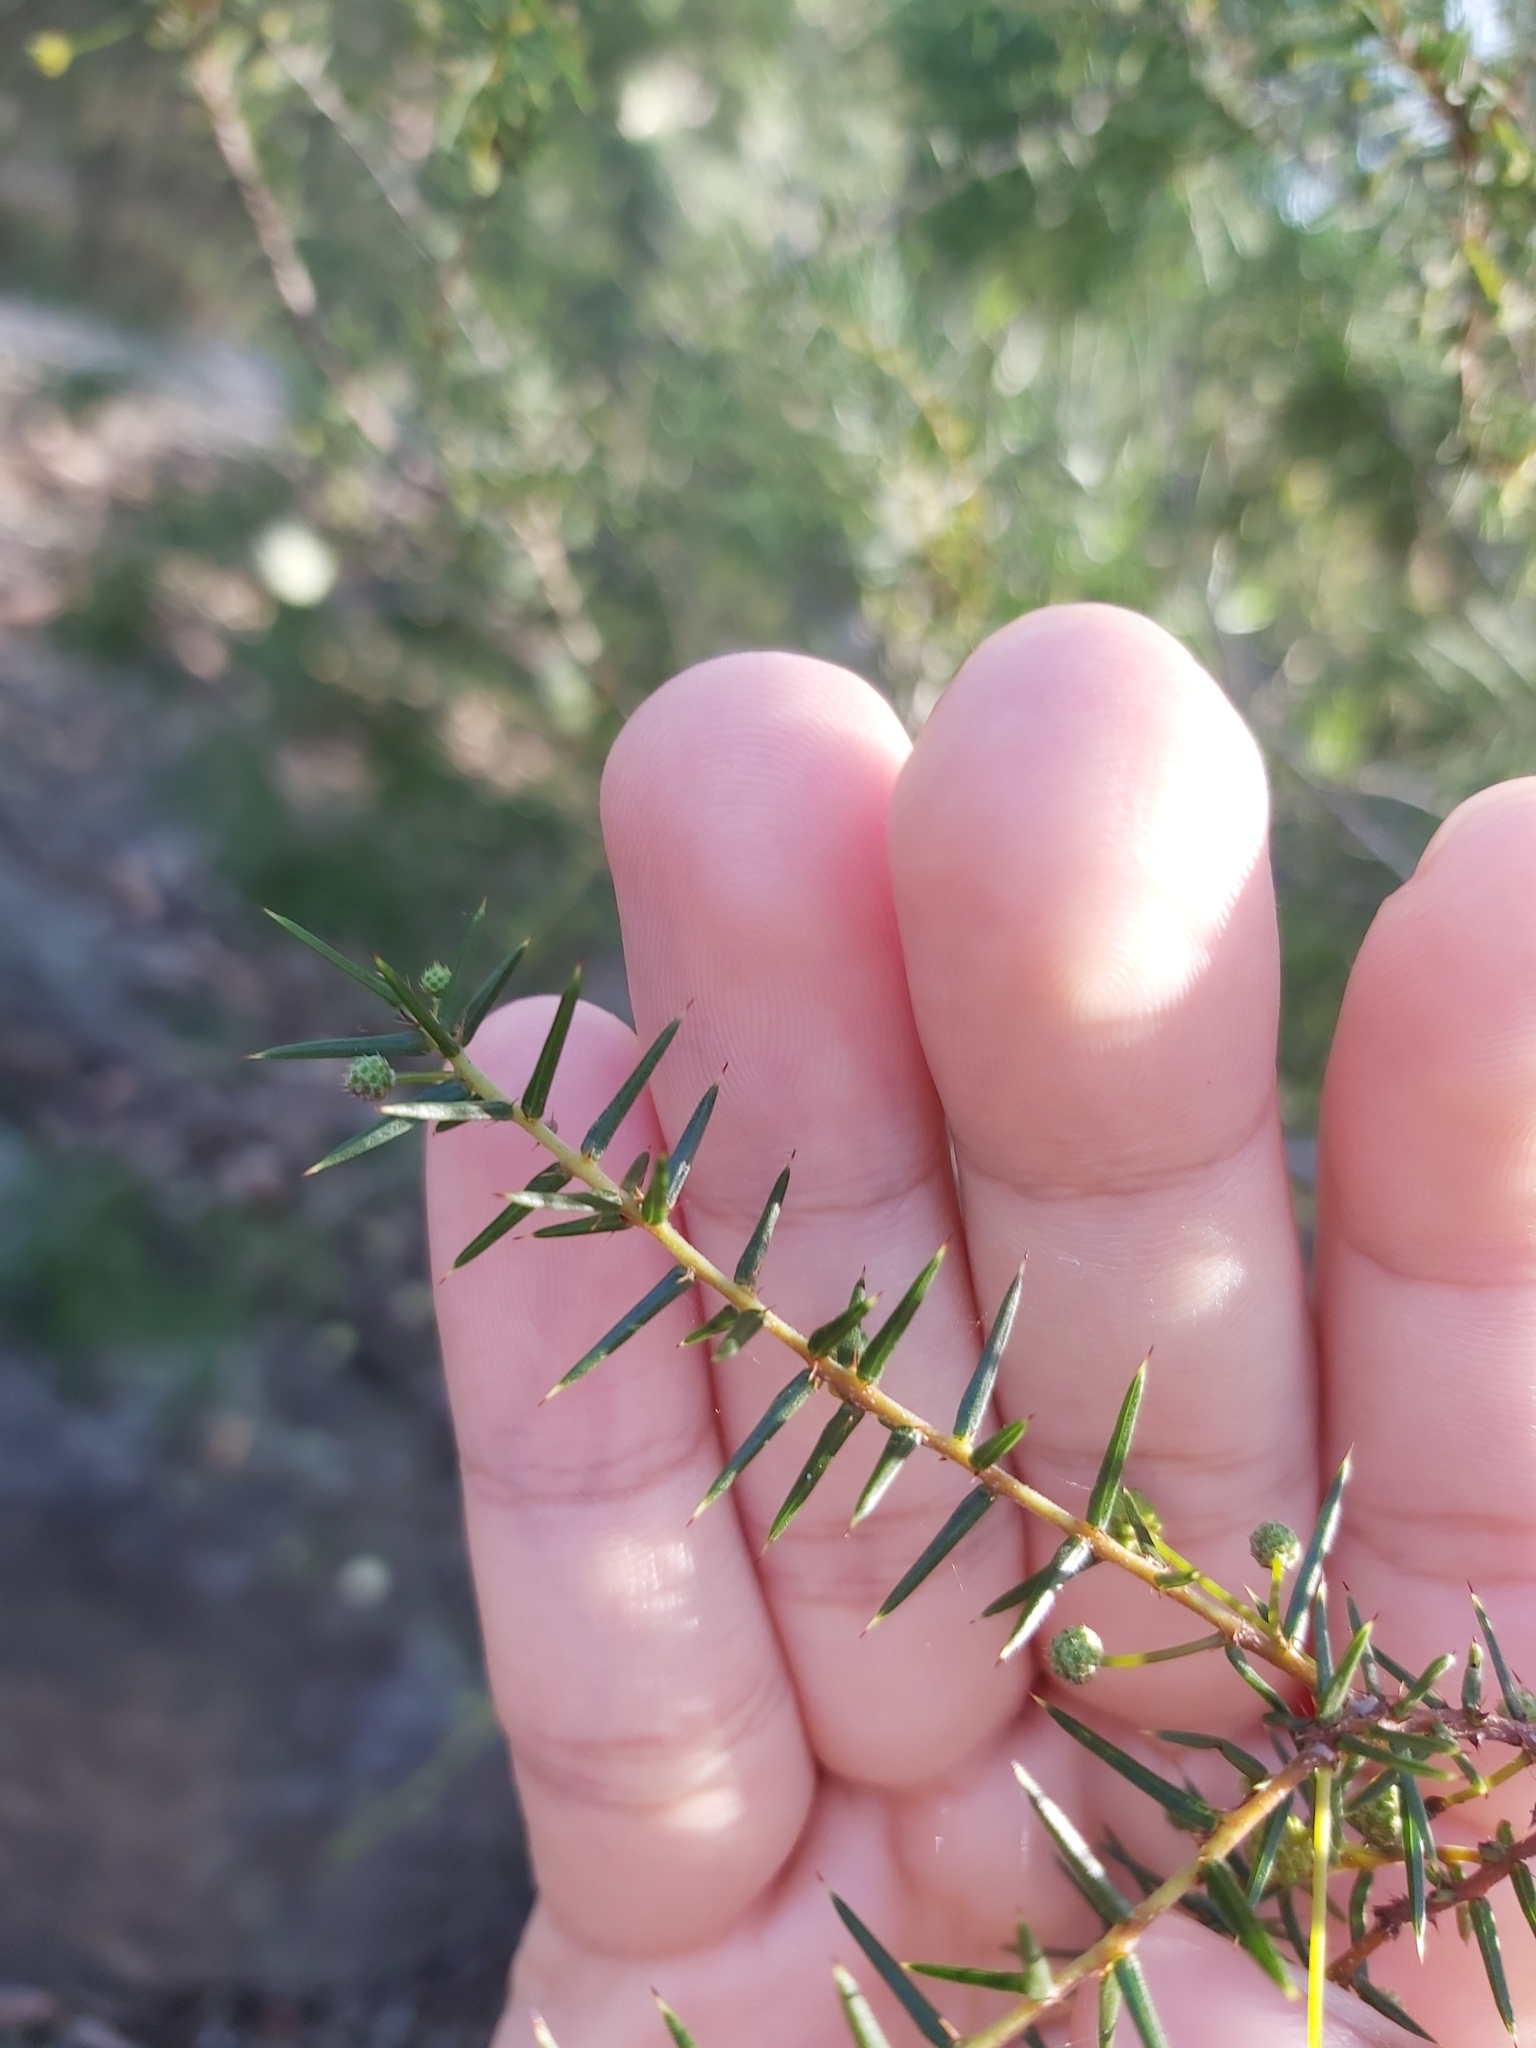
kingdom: Plantae
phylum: Tracheophyta
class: Magnoliopsida
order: Fabales
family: Fabaceae
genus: Acacia
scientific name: Acacia ulicifolia
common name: Juniper wattle
